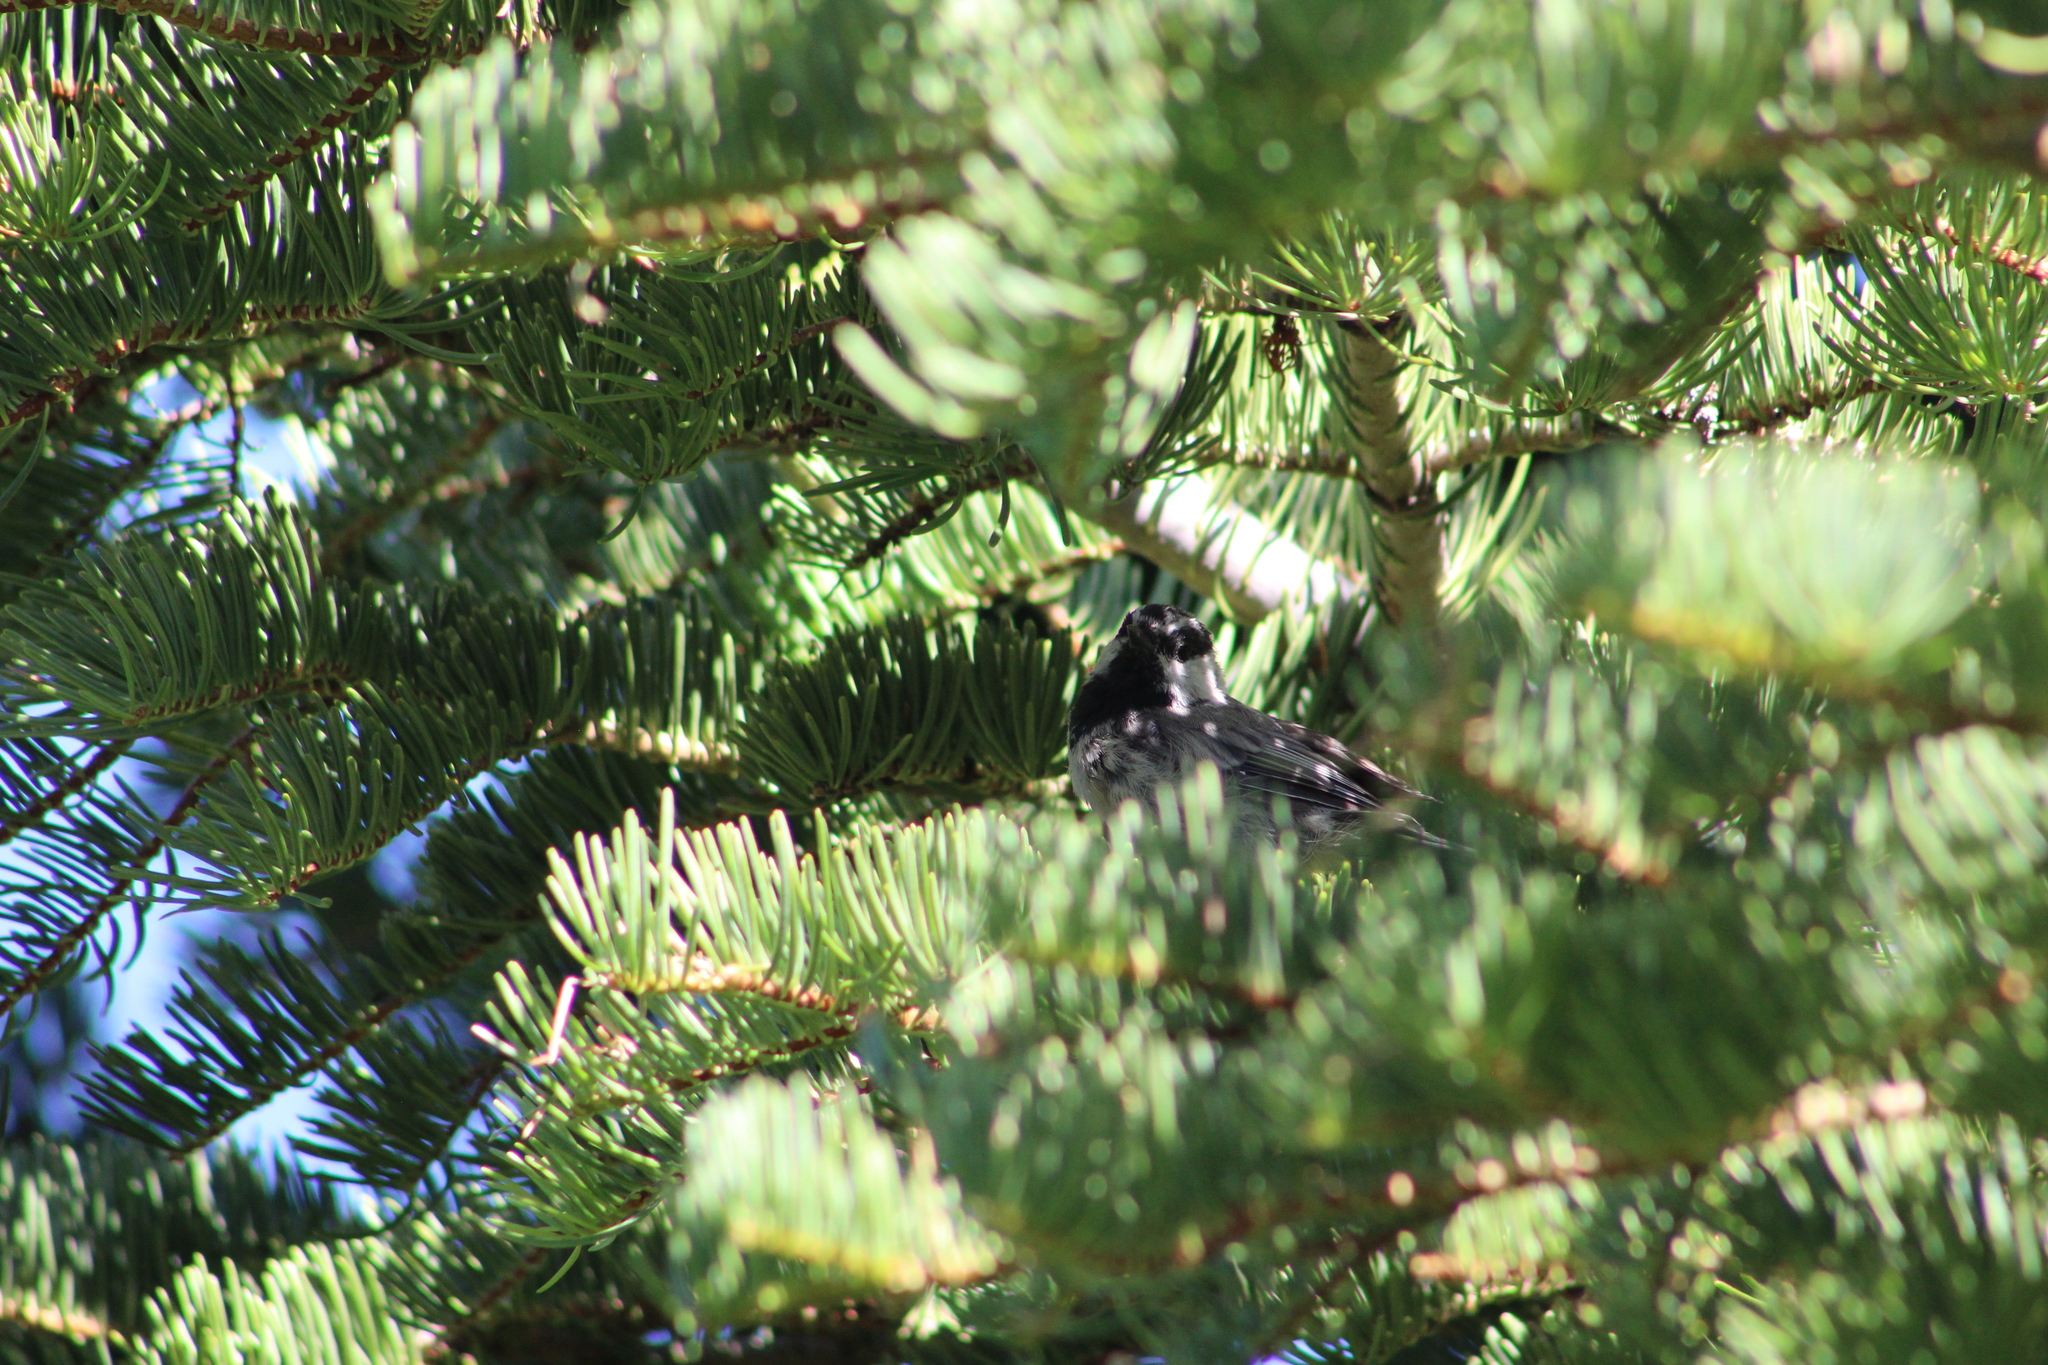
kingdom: Animalia
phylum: Chordata
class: Aves
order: Passeriformes
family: Paridae
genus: Poecile
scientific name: Poecile gambeli
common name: Mountain chickadee
